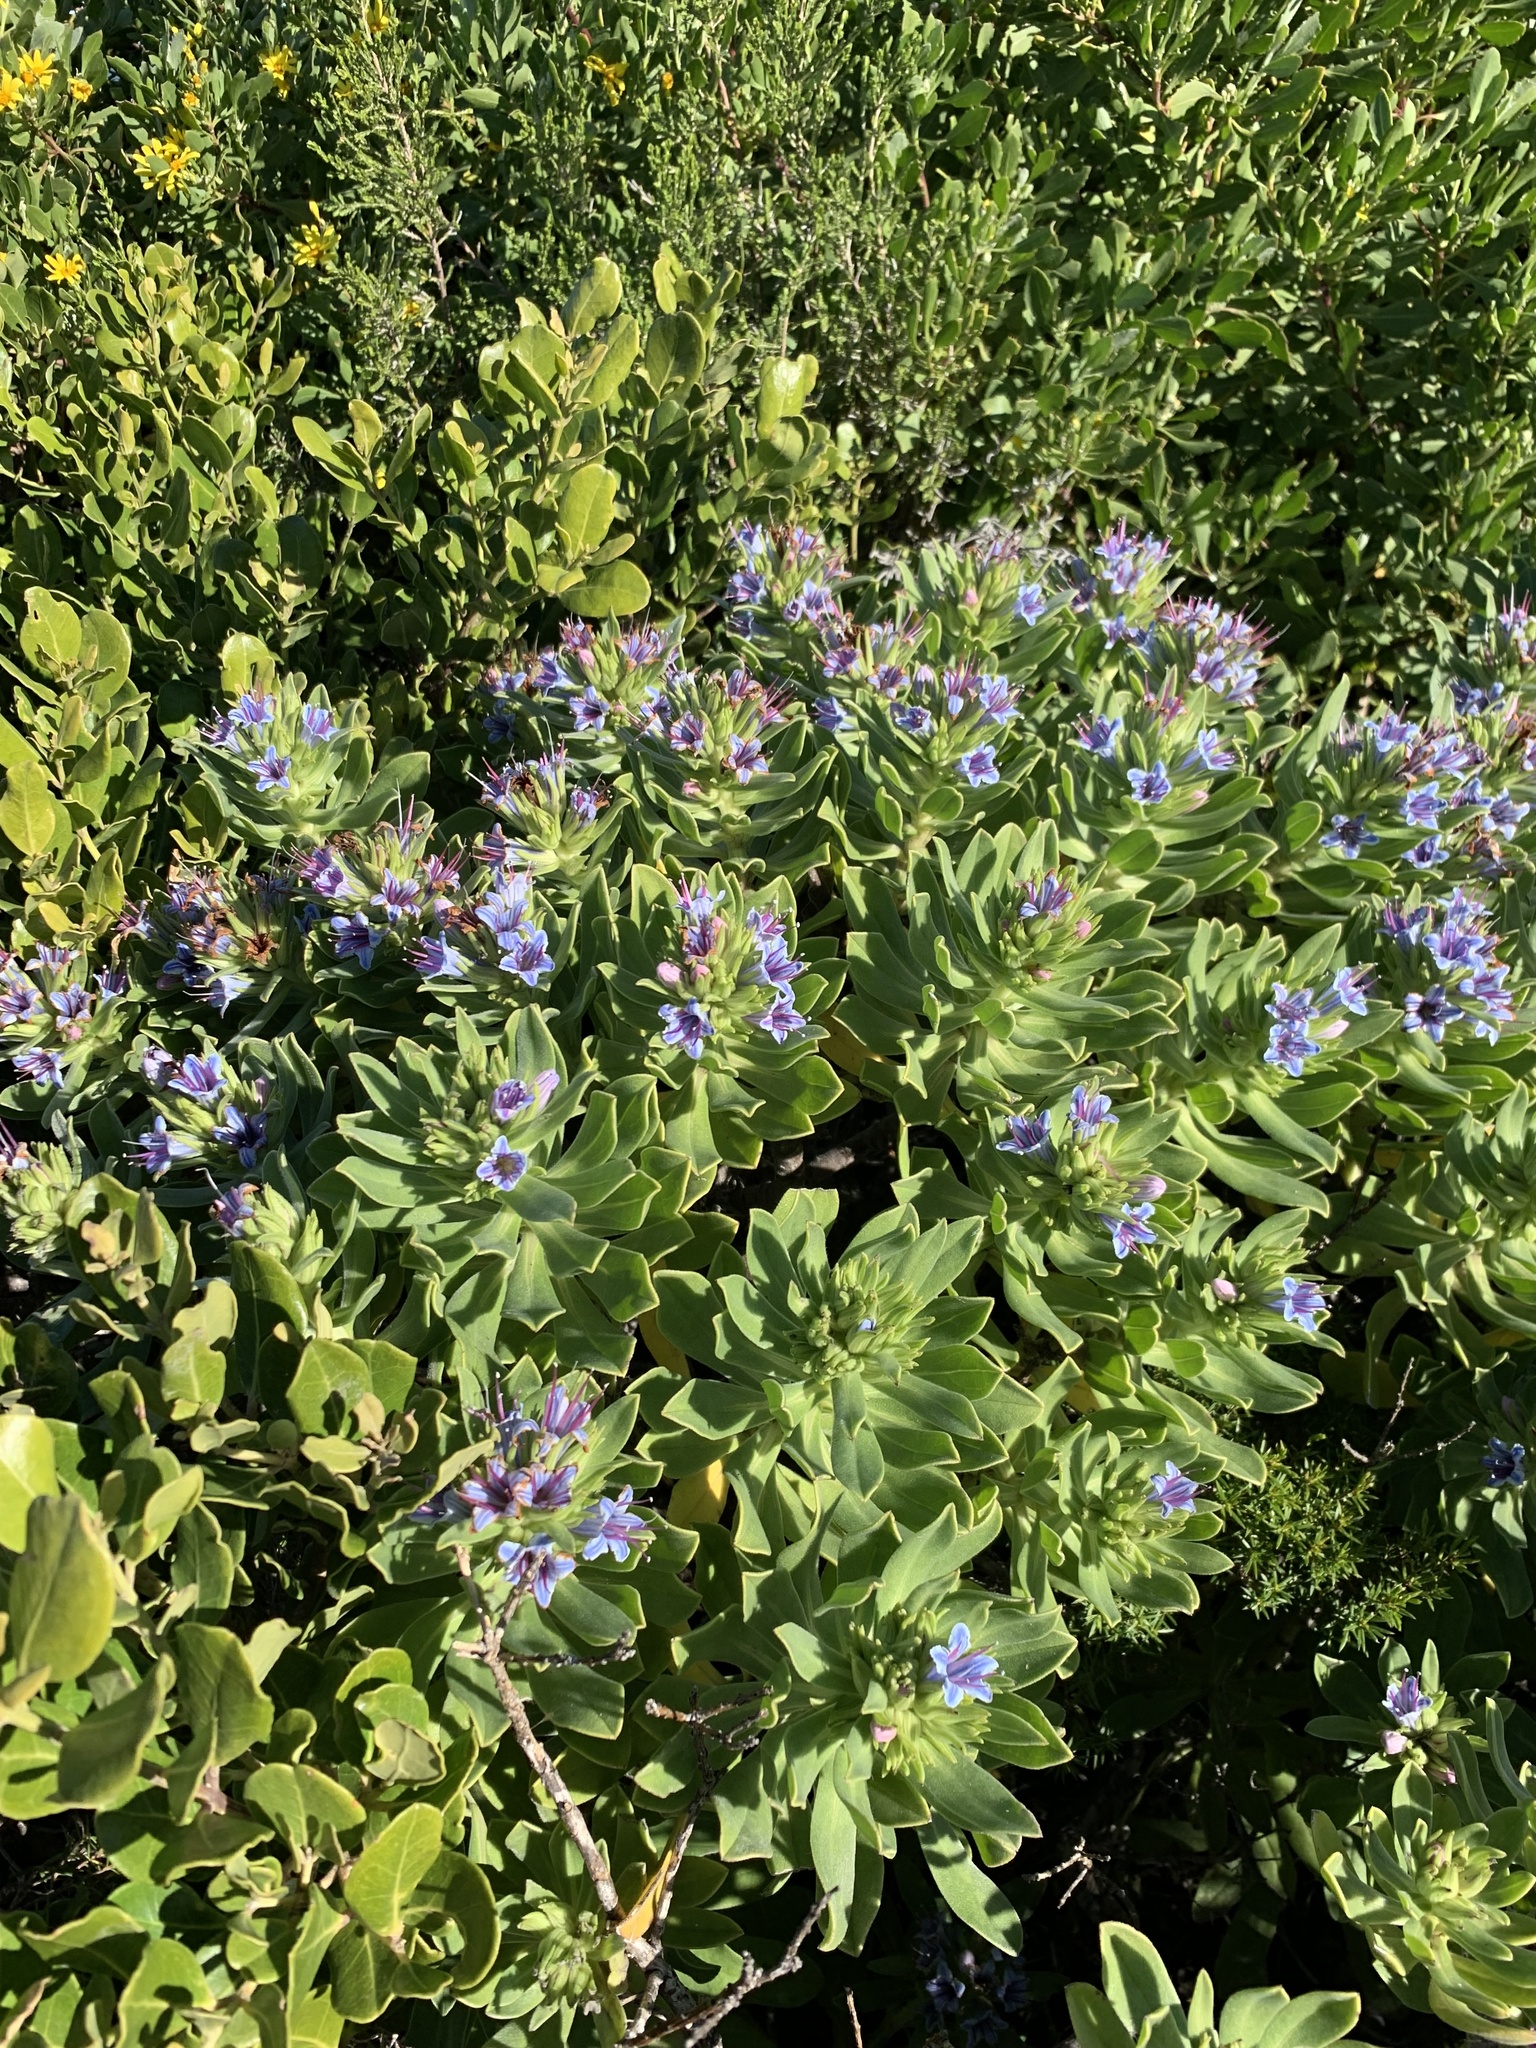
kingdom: Plantae
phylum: Tracheophyta
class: Magnoliopsida
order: Boraginales
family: Boraginaceae
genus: Lobostemon
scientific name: Lobostemon montanus
